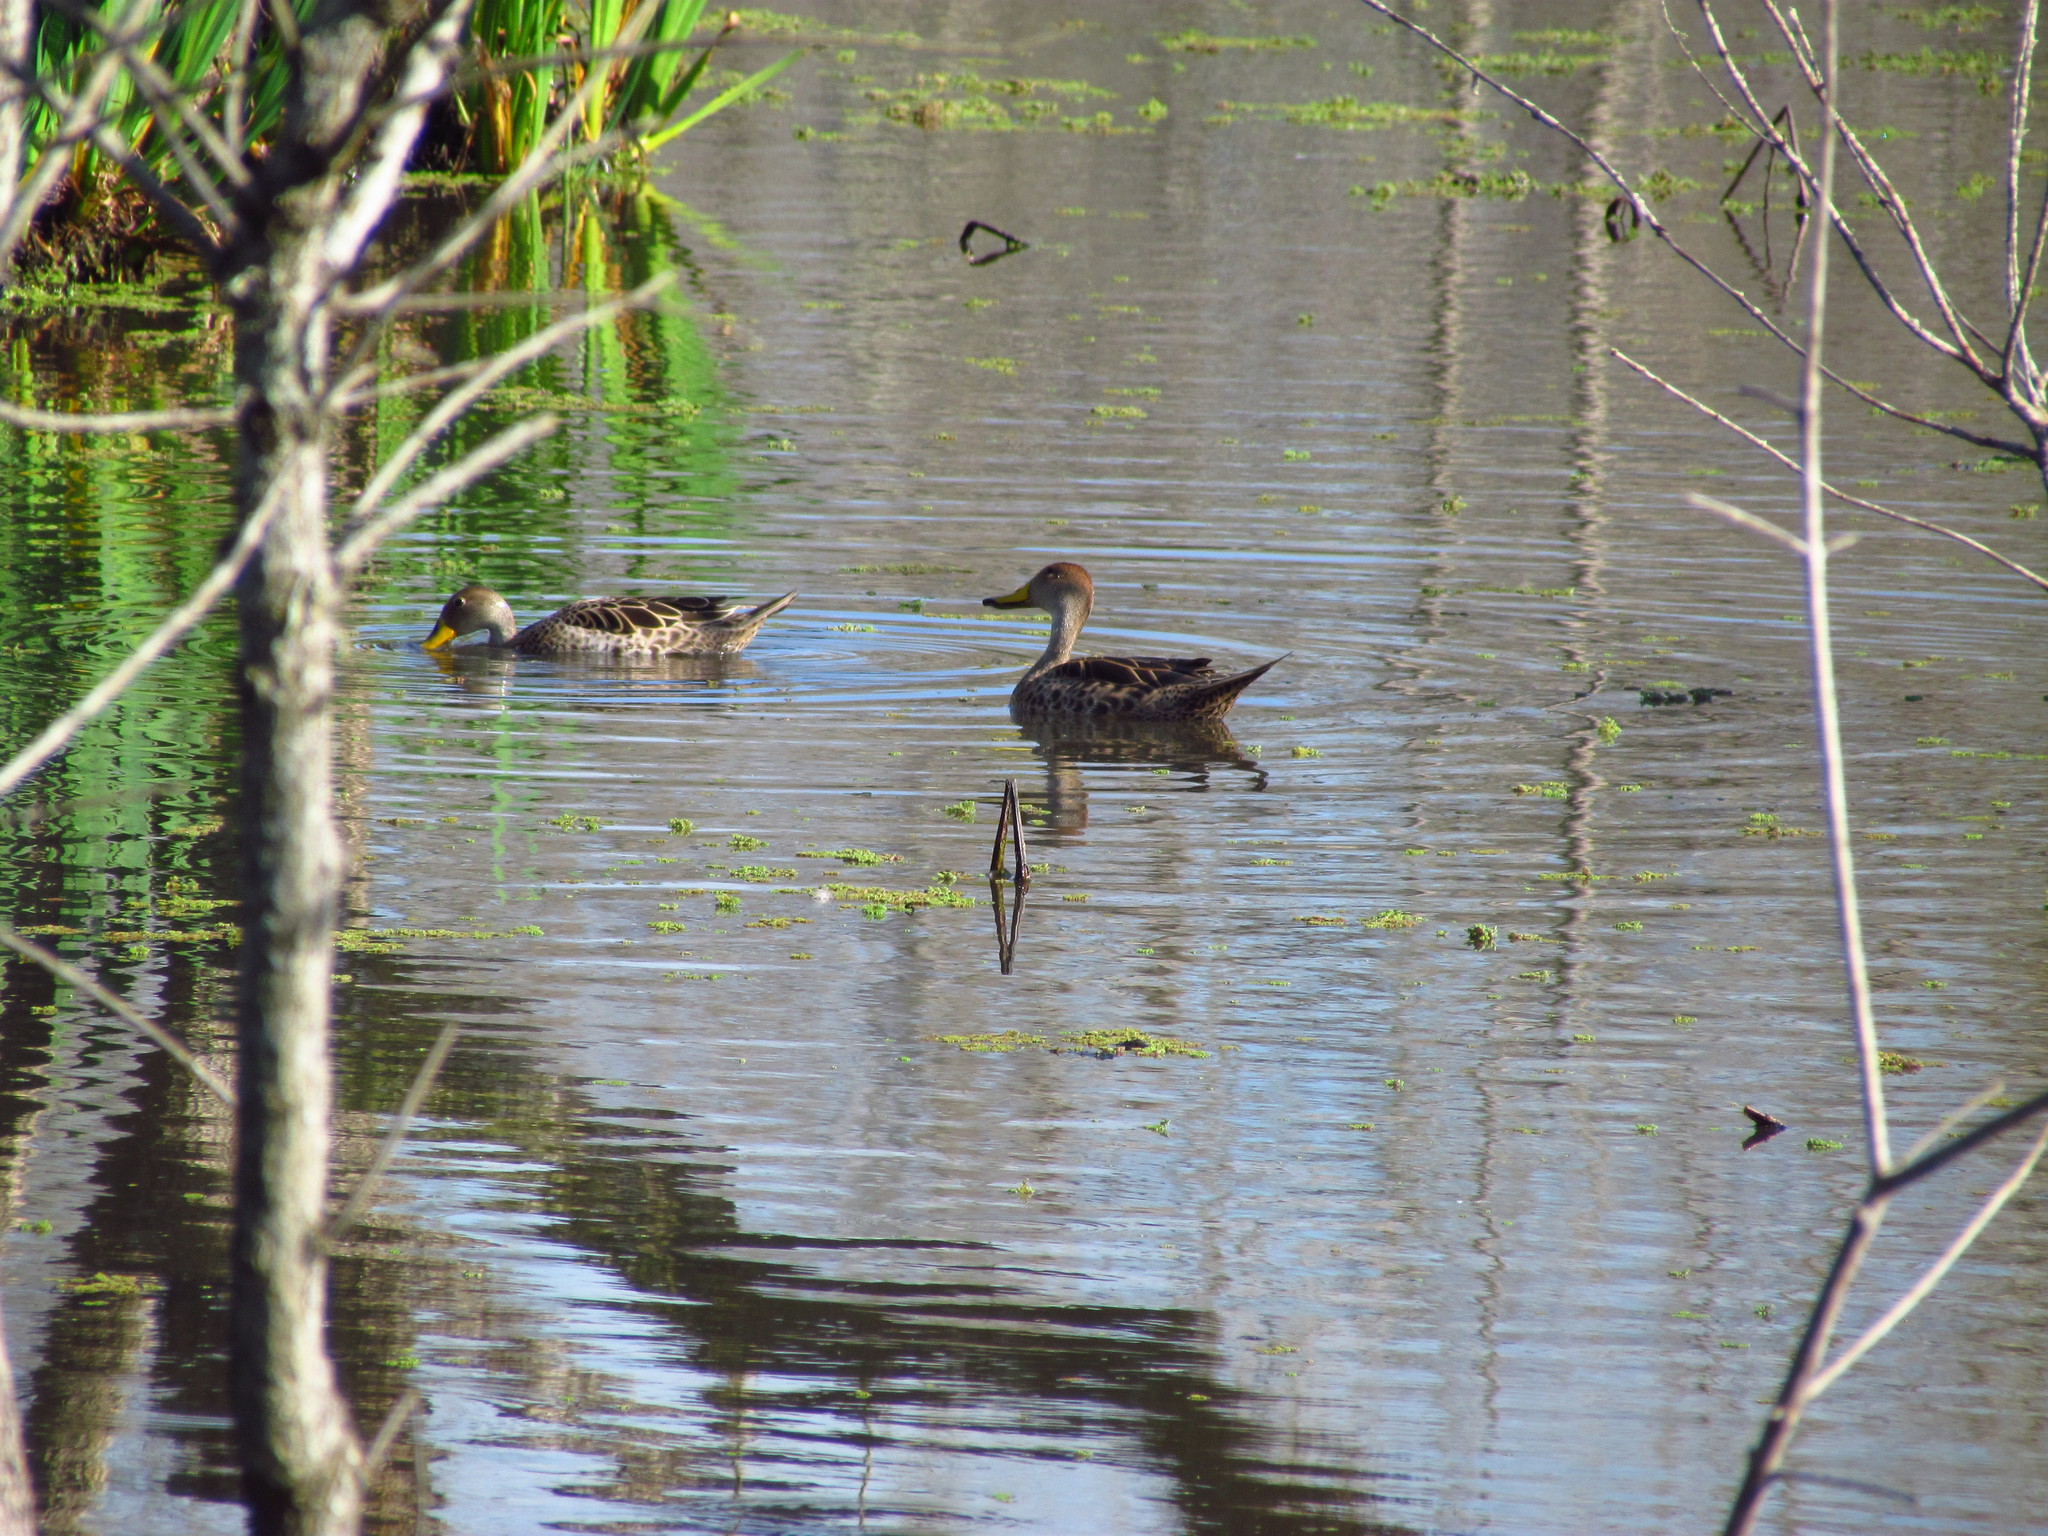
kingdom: Animalia
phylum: Chordata
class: Aves
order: Anseriformes
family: Anatidae
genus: Anas
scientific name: Anas georgica
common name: Yellow-billed pintail
